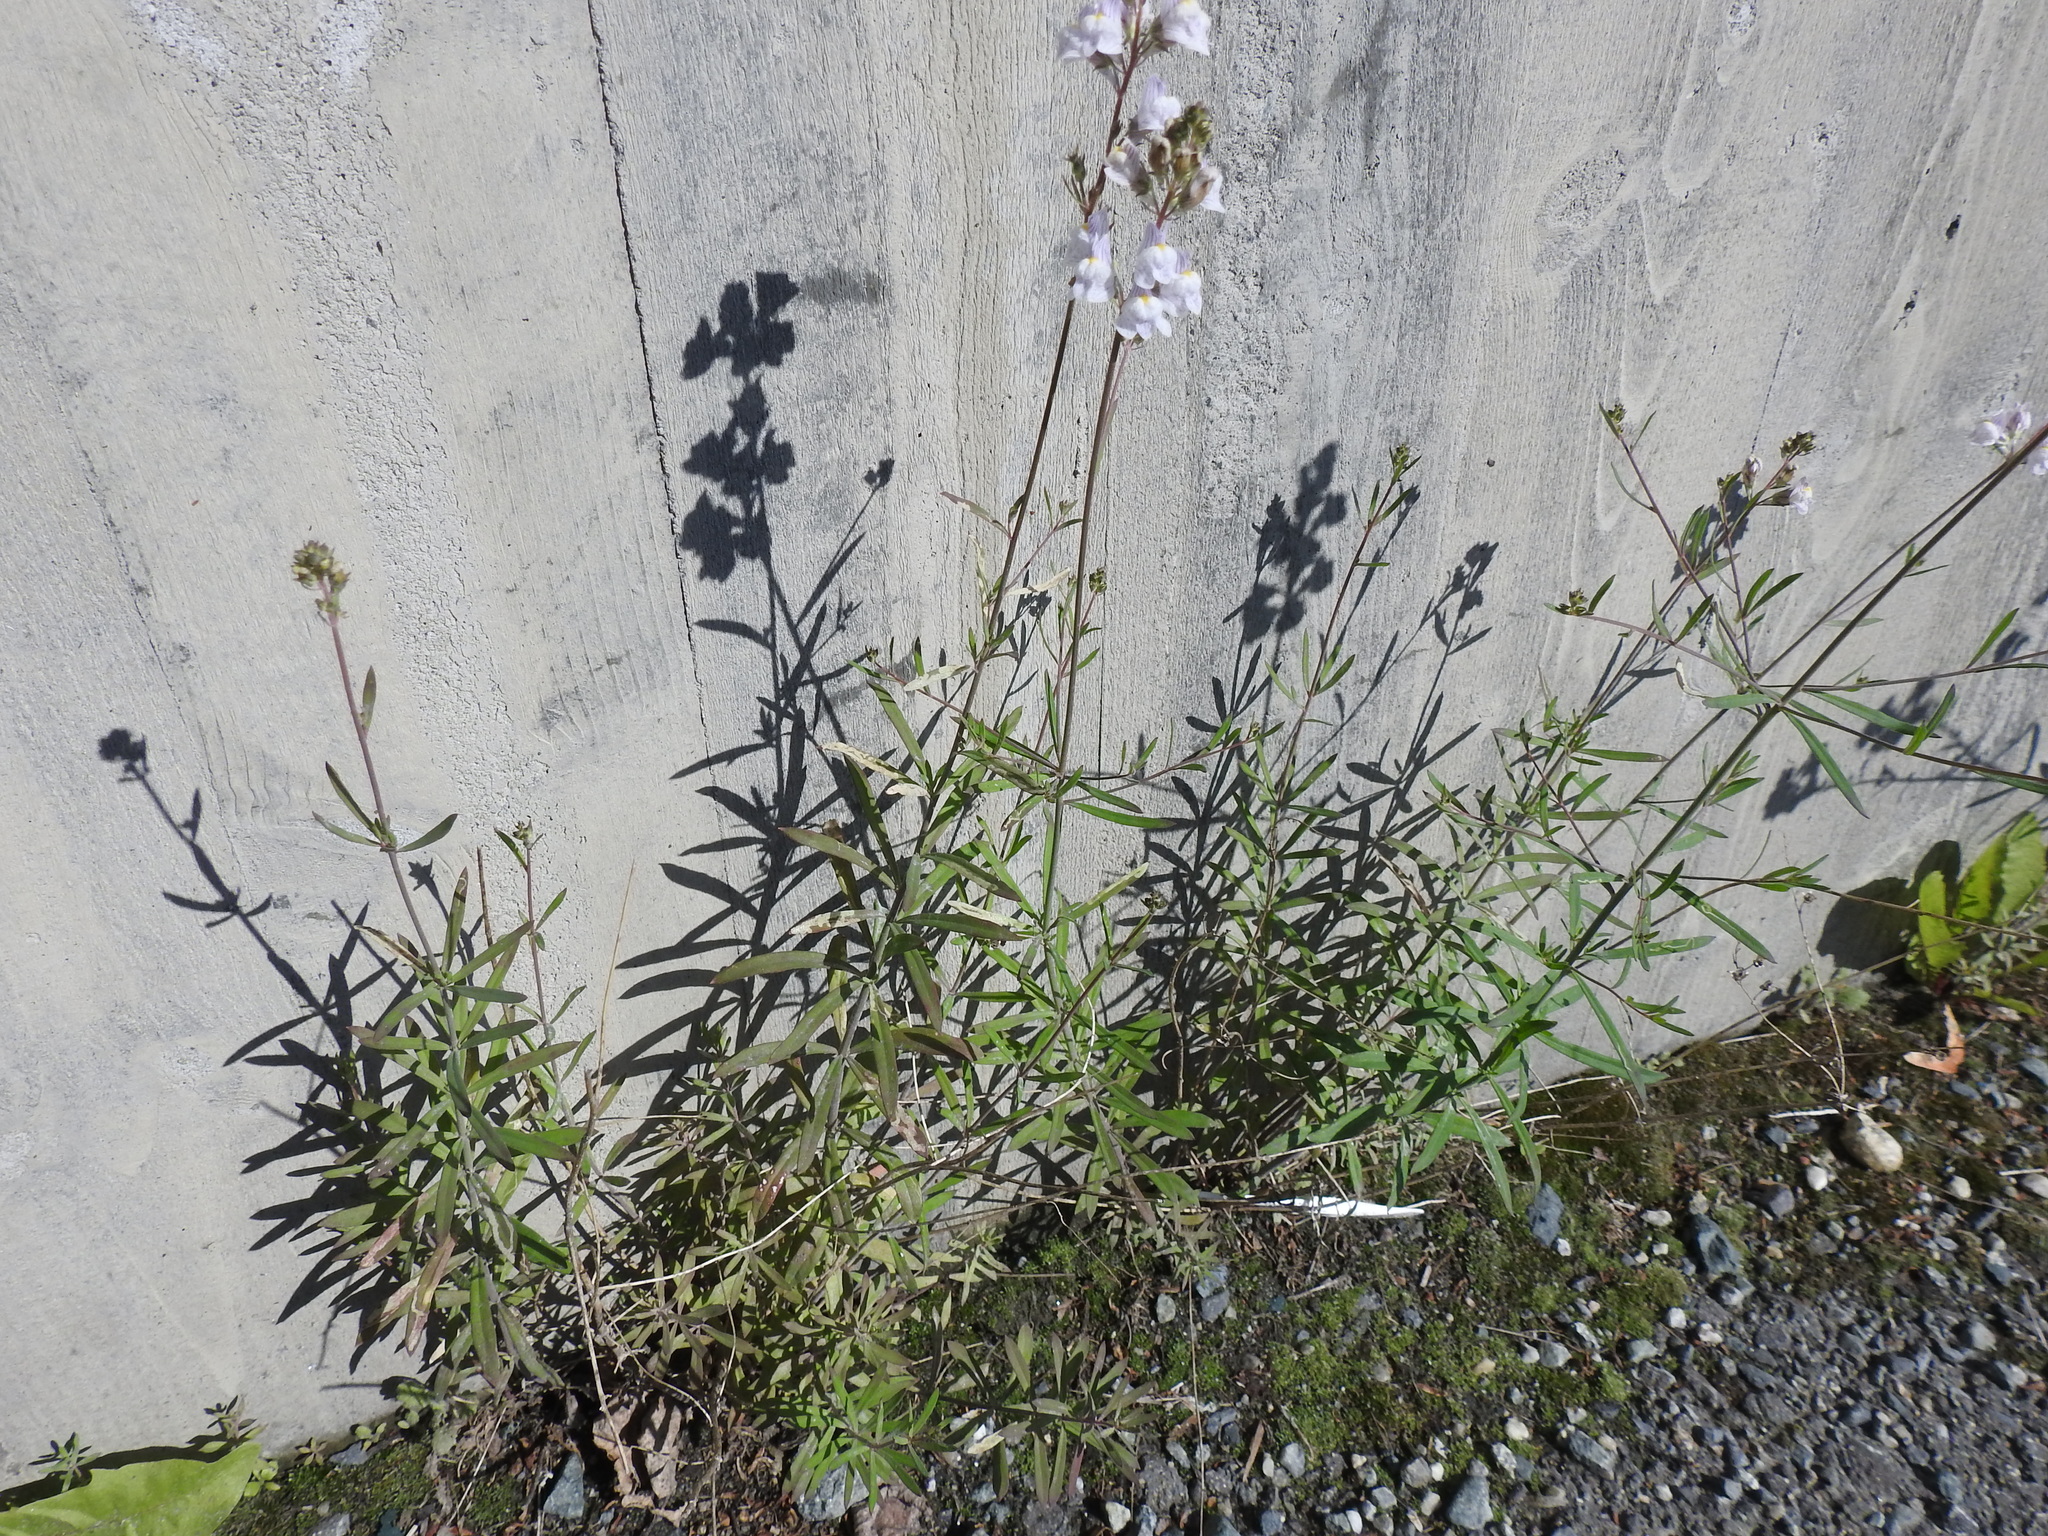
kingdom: Plantae
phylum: Tracheophyta
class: Magnoliopsida
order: Lamiales
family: Plantaginaceae
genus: Linaria
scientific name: Linaria repens
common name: Pale toadflax
